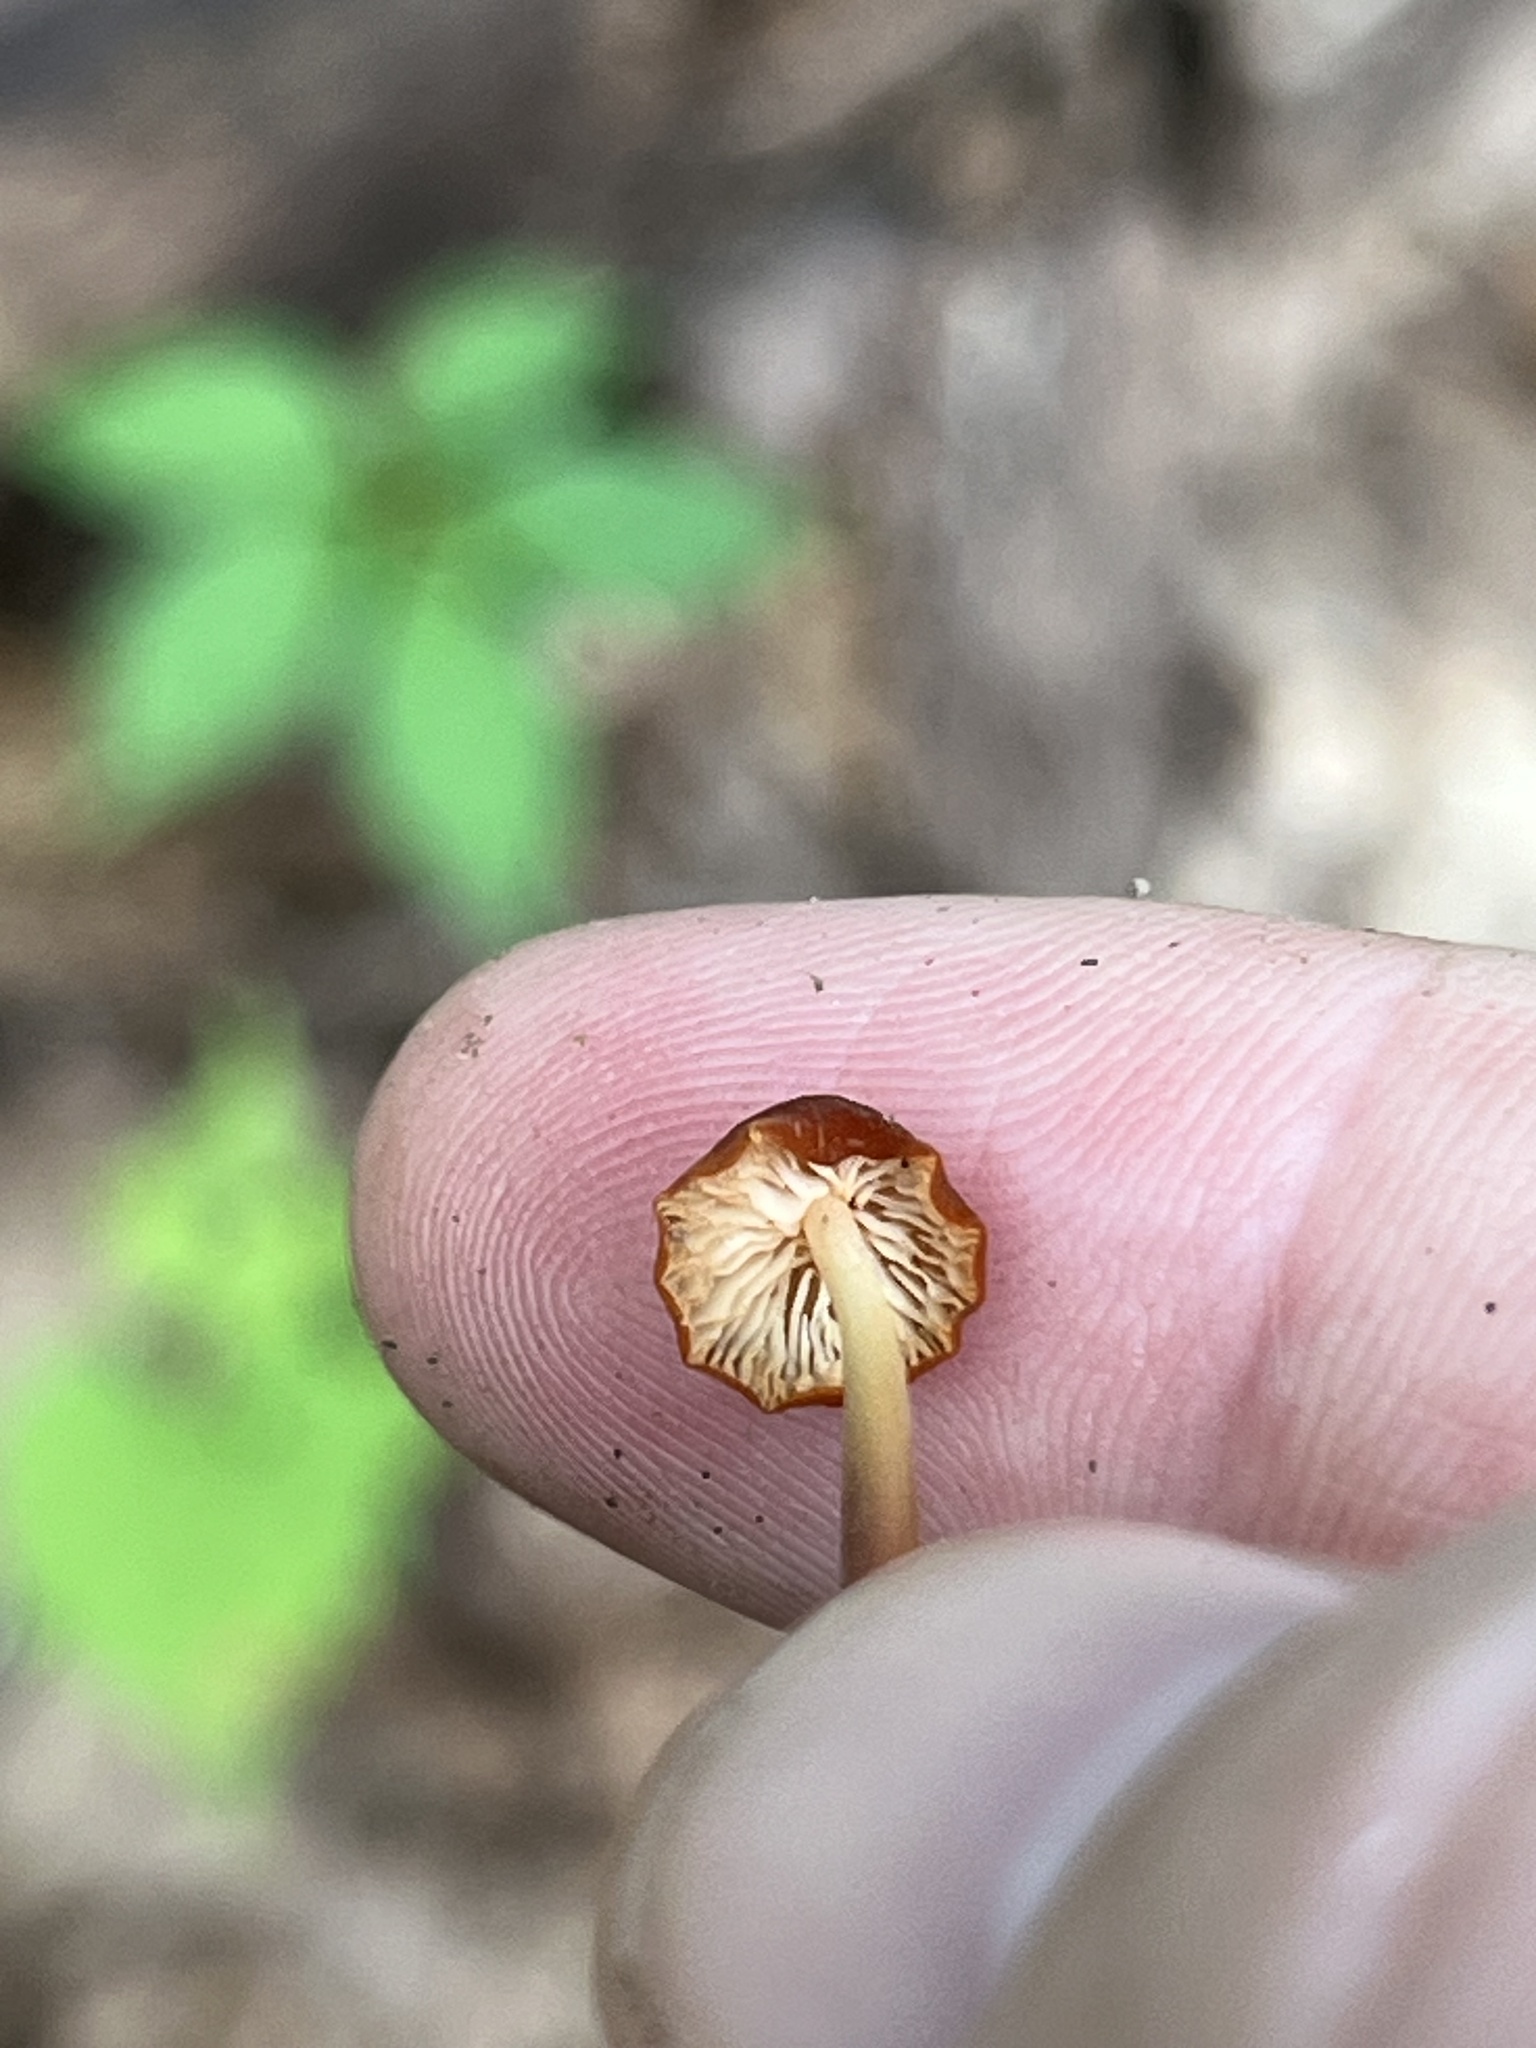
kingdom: Fungi
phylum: Basidiomycota
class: Agaricomycetes
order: Agaricales
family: Marasmiaceae
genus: Marasmius
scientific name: Marasmius sullivantii
